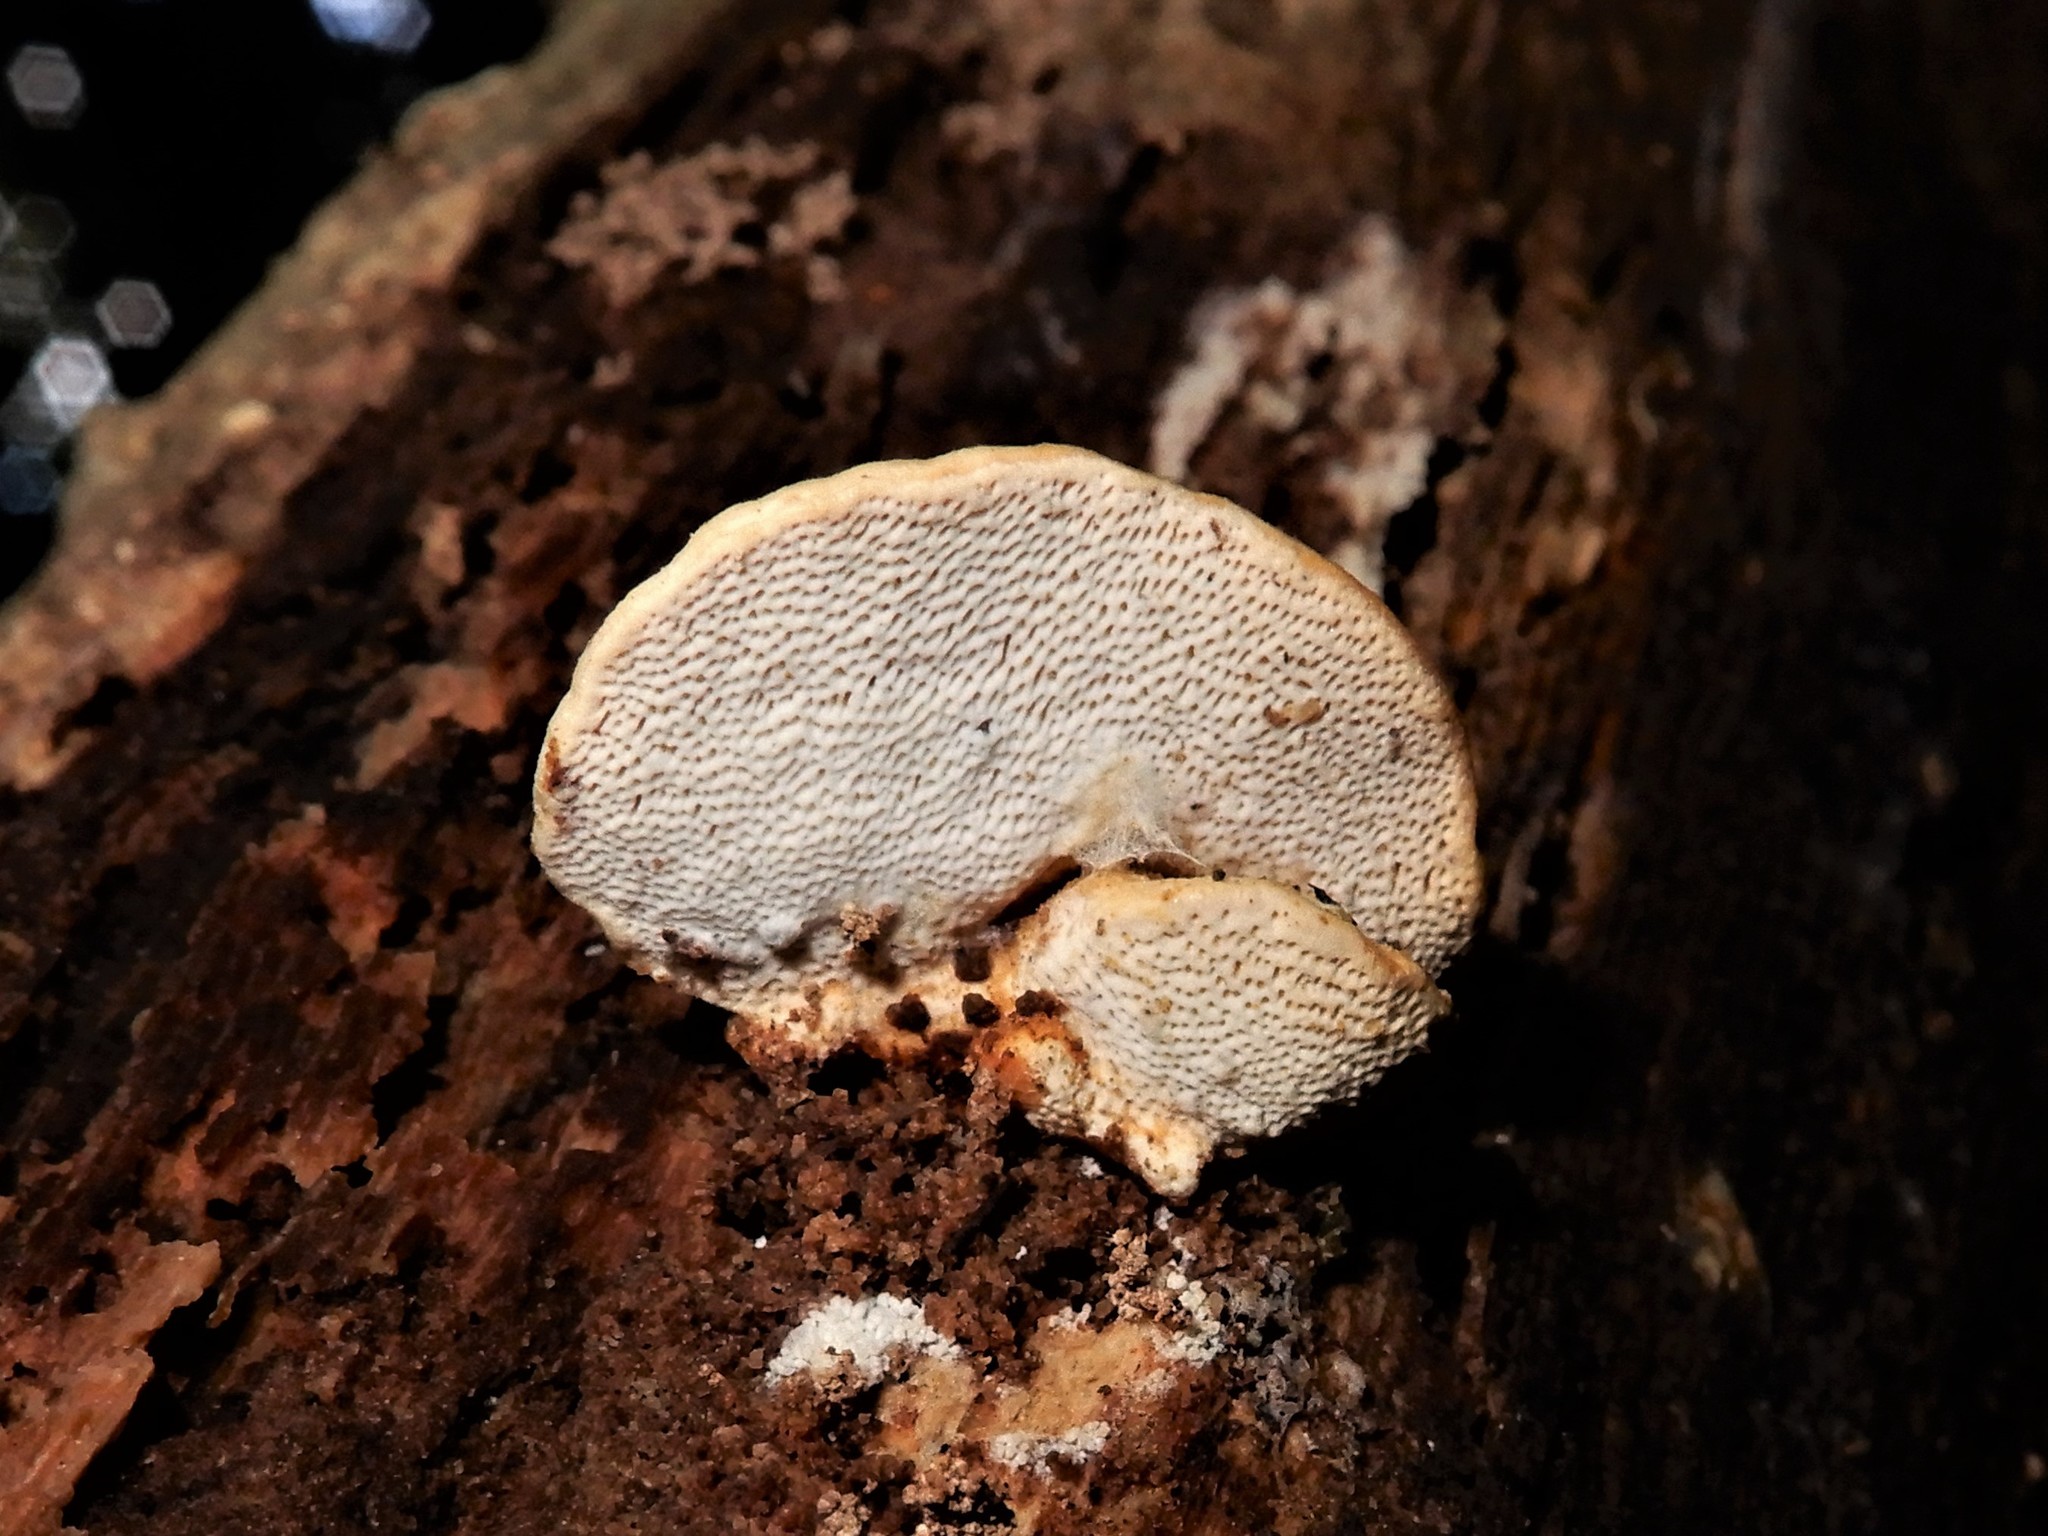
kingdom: Fungi
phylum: Basidiomycota
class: Agaricomycetes
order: Polyporales
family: Polyporaceae
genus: Truncospora
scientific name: Truncospora ochroleuca
